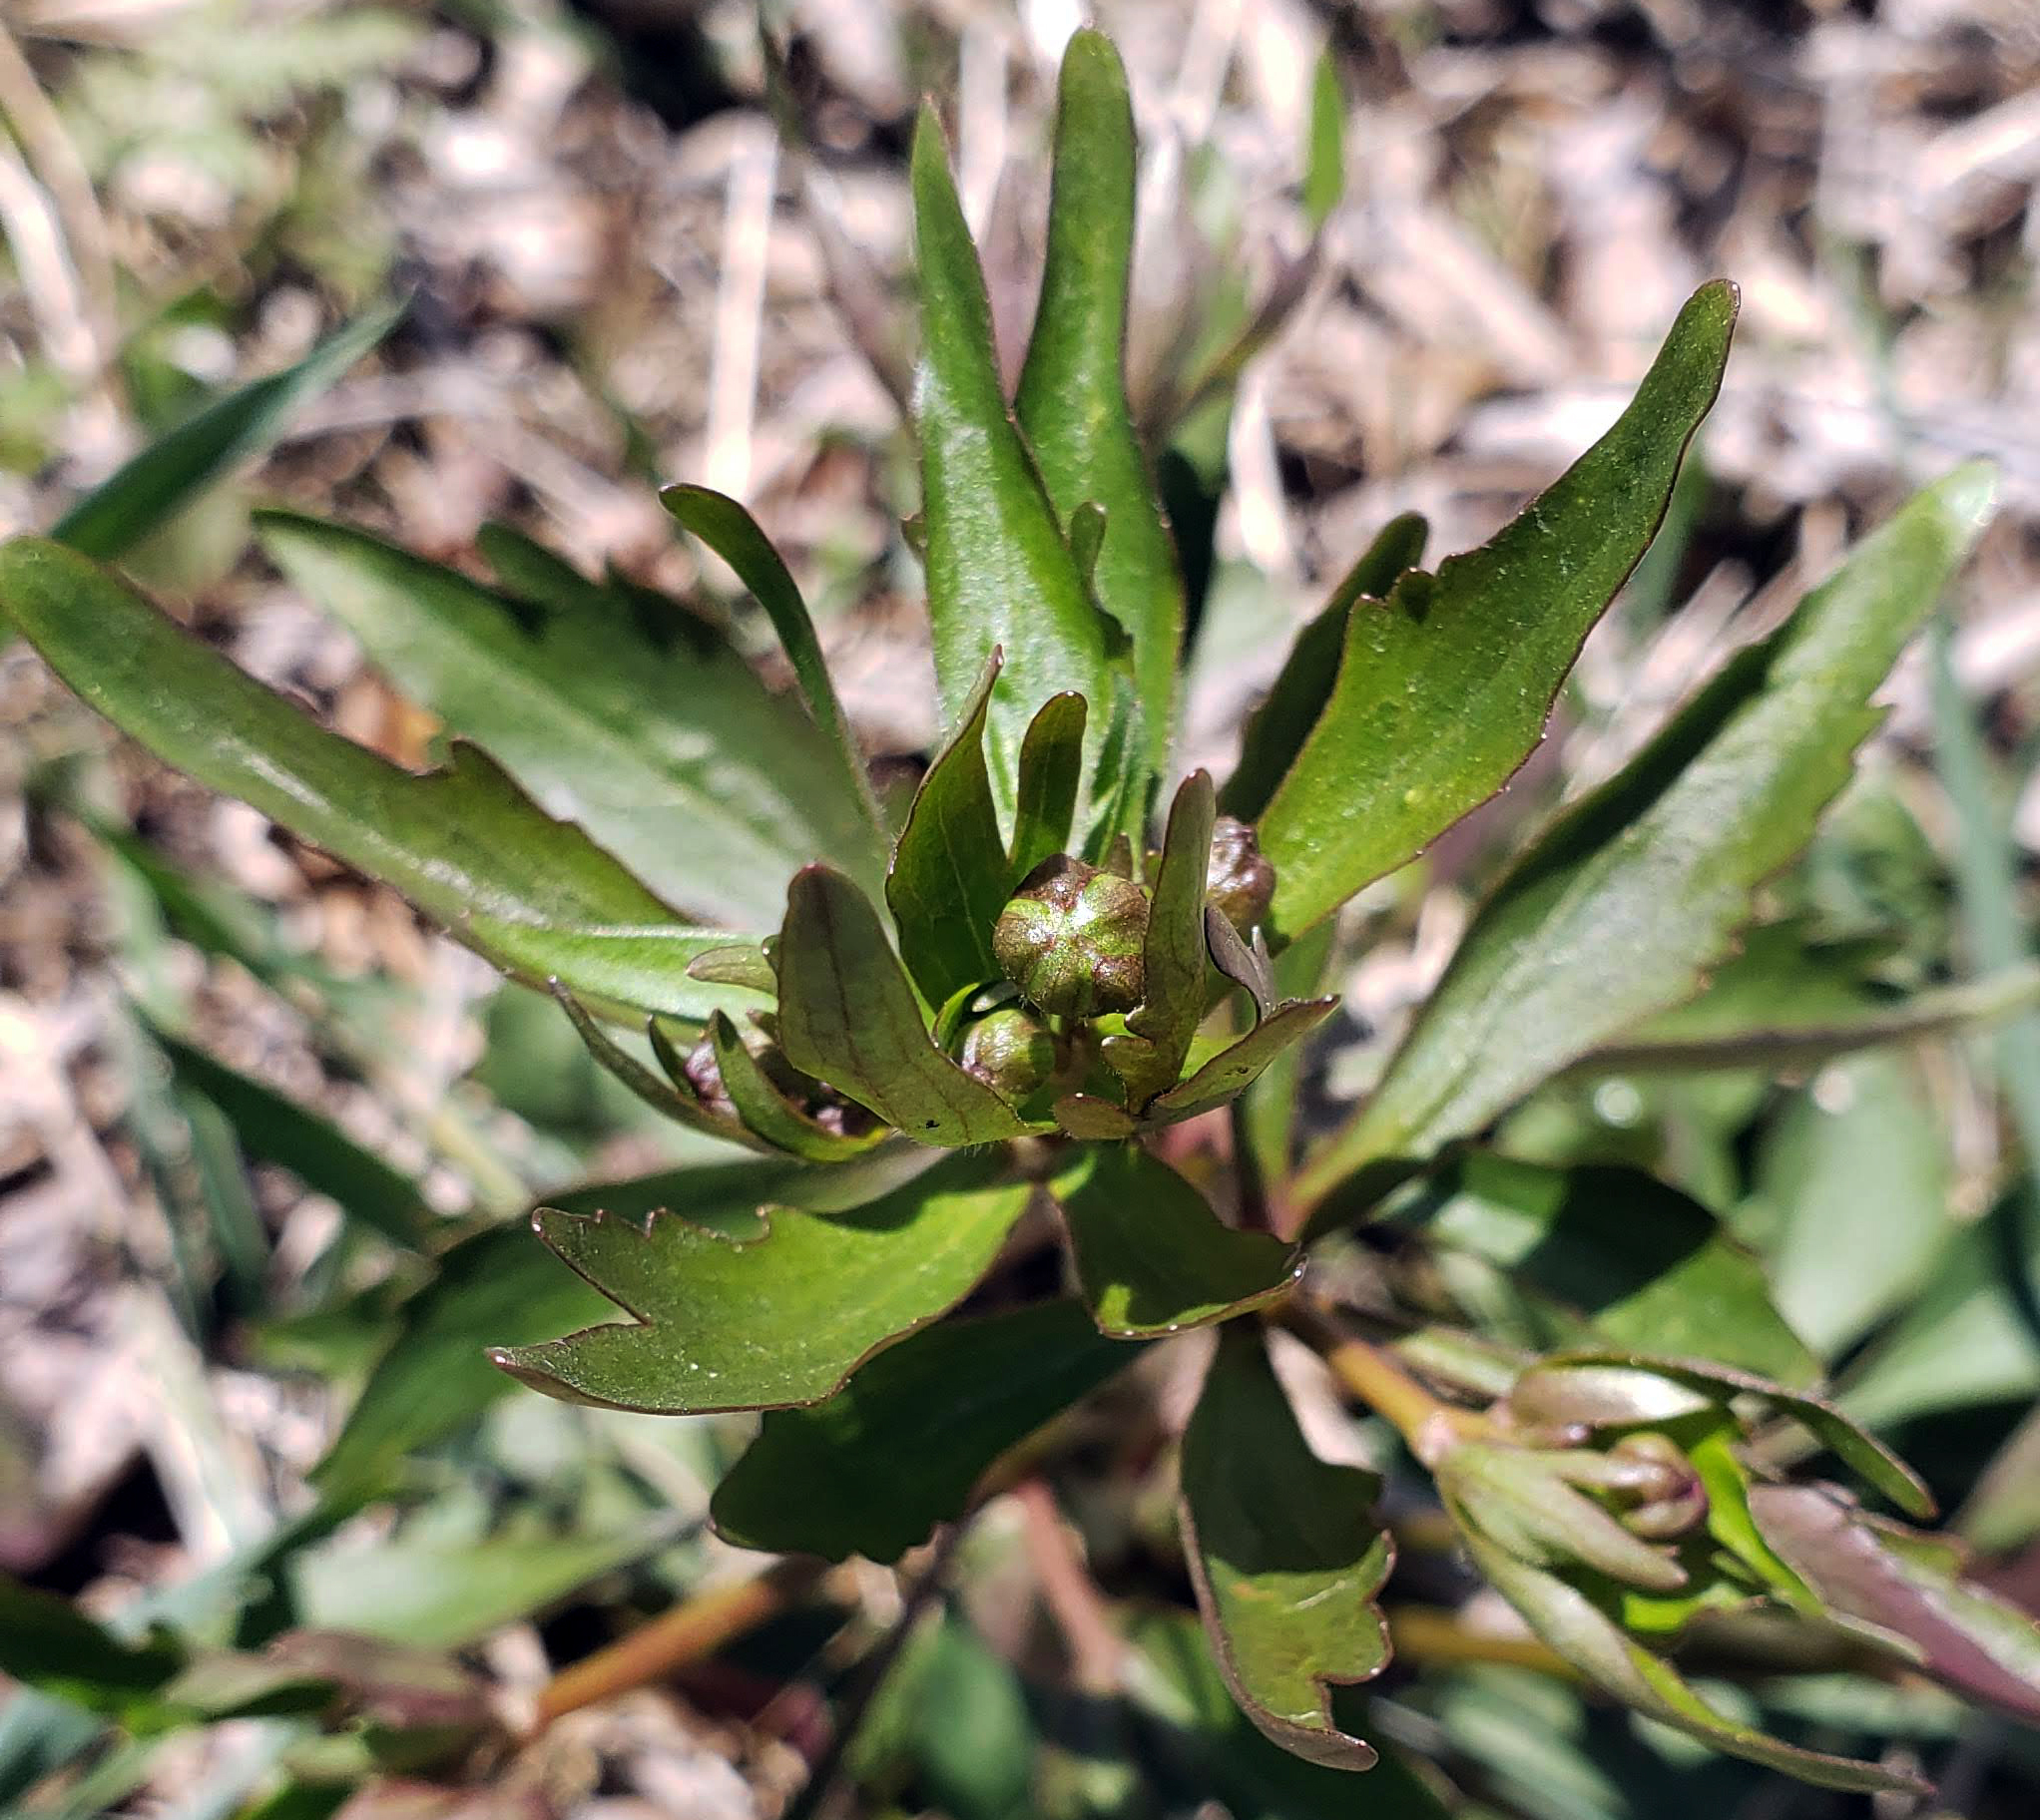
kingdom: Plantae
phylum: Tracheophyta
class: Magnoliopsida
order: Ranunculales
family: Ranunculaceae
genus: Ranunculus
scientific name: Ranunculus abortivus
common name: Early wood buttercup
